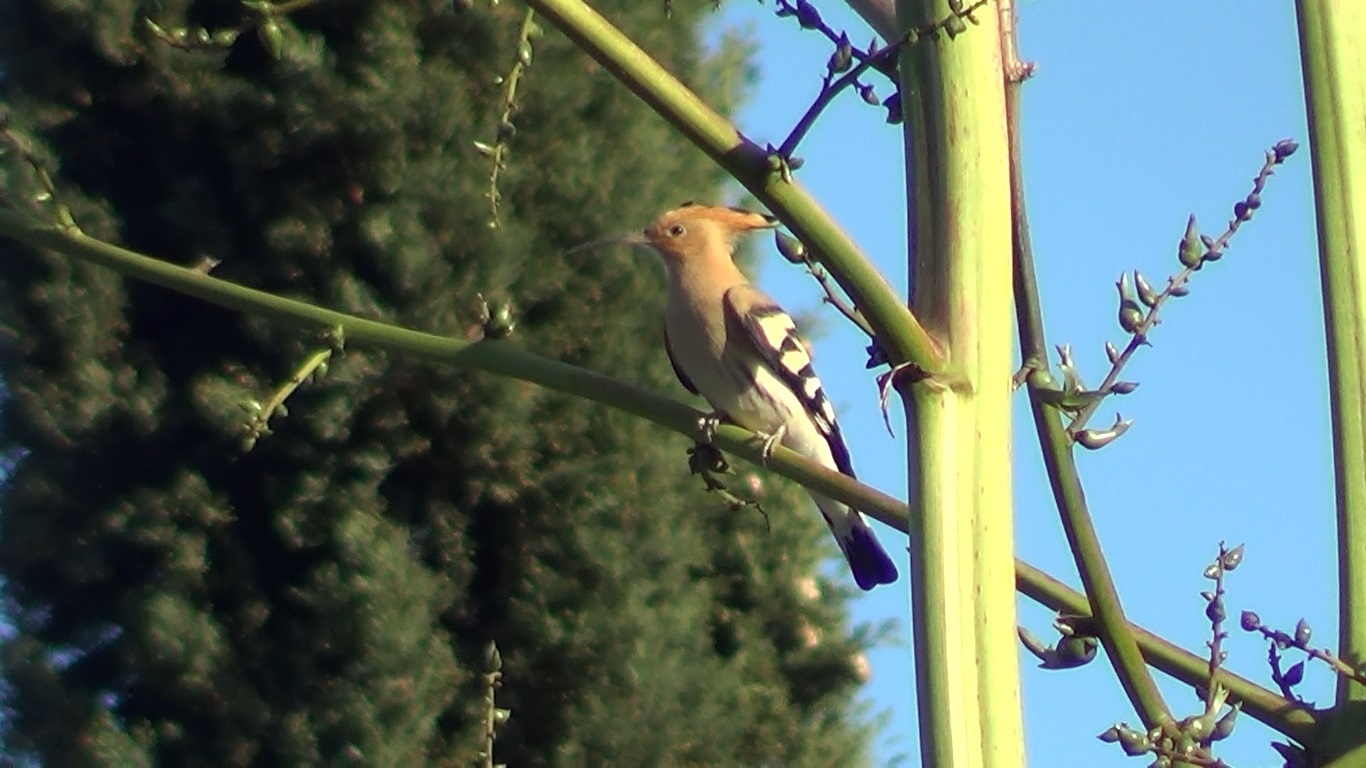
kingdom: Animalia
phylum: Chordata
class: Aves
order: Bucerotiformes
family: Upupidae
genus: Upupa
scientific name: Upupa epops
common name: Eurasian hoopoe
